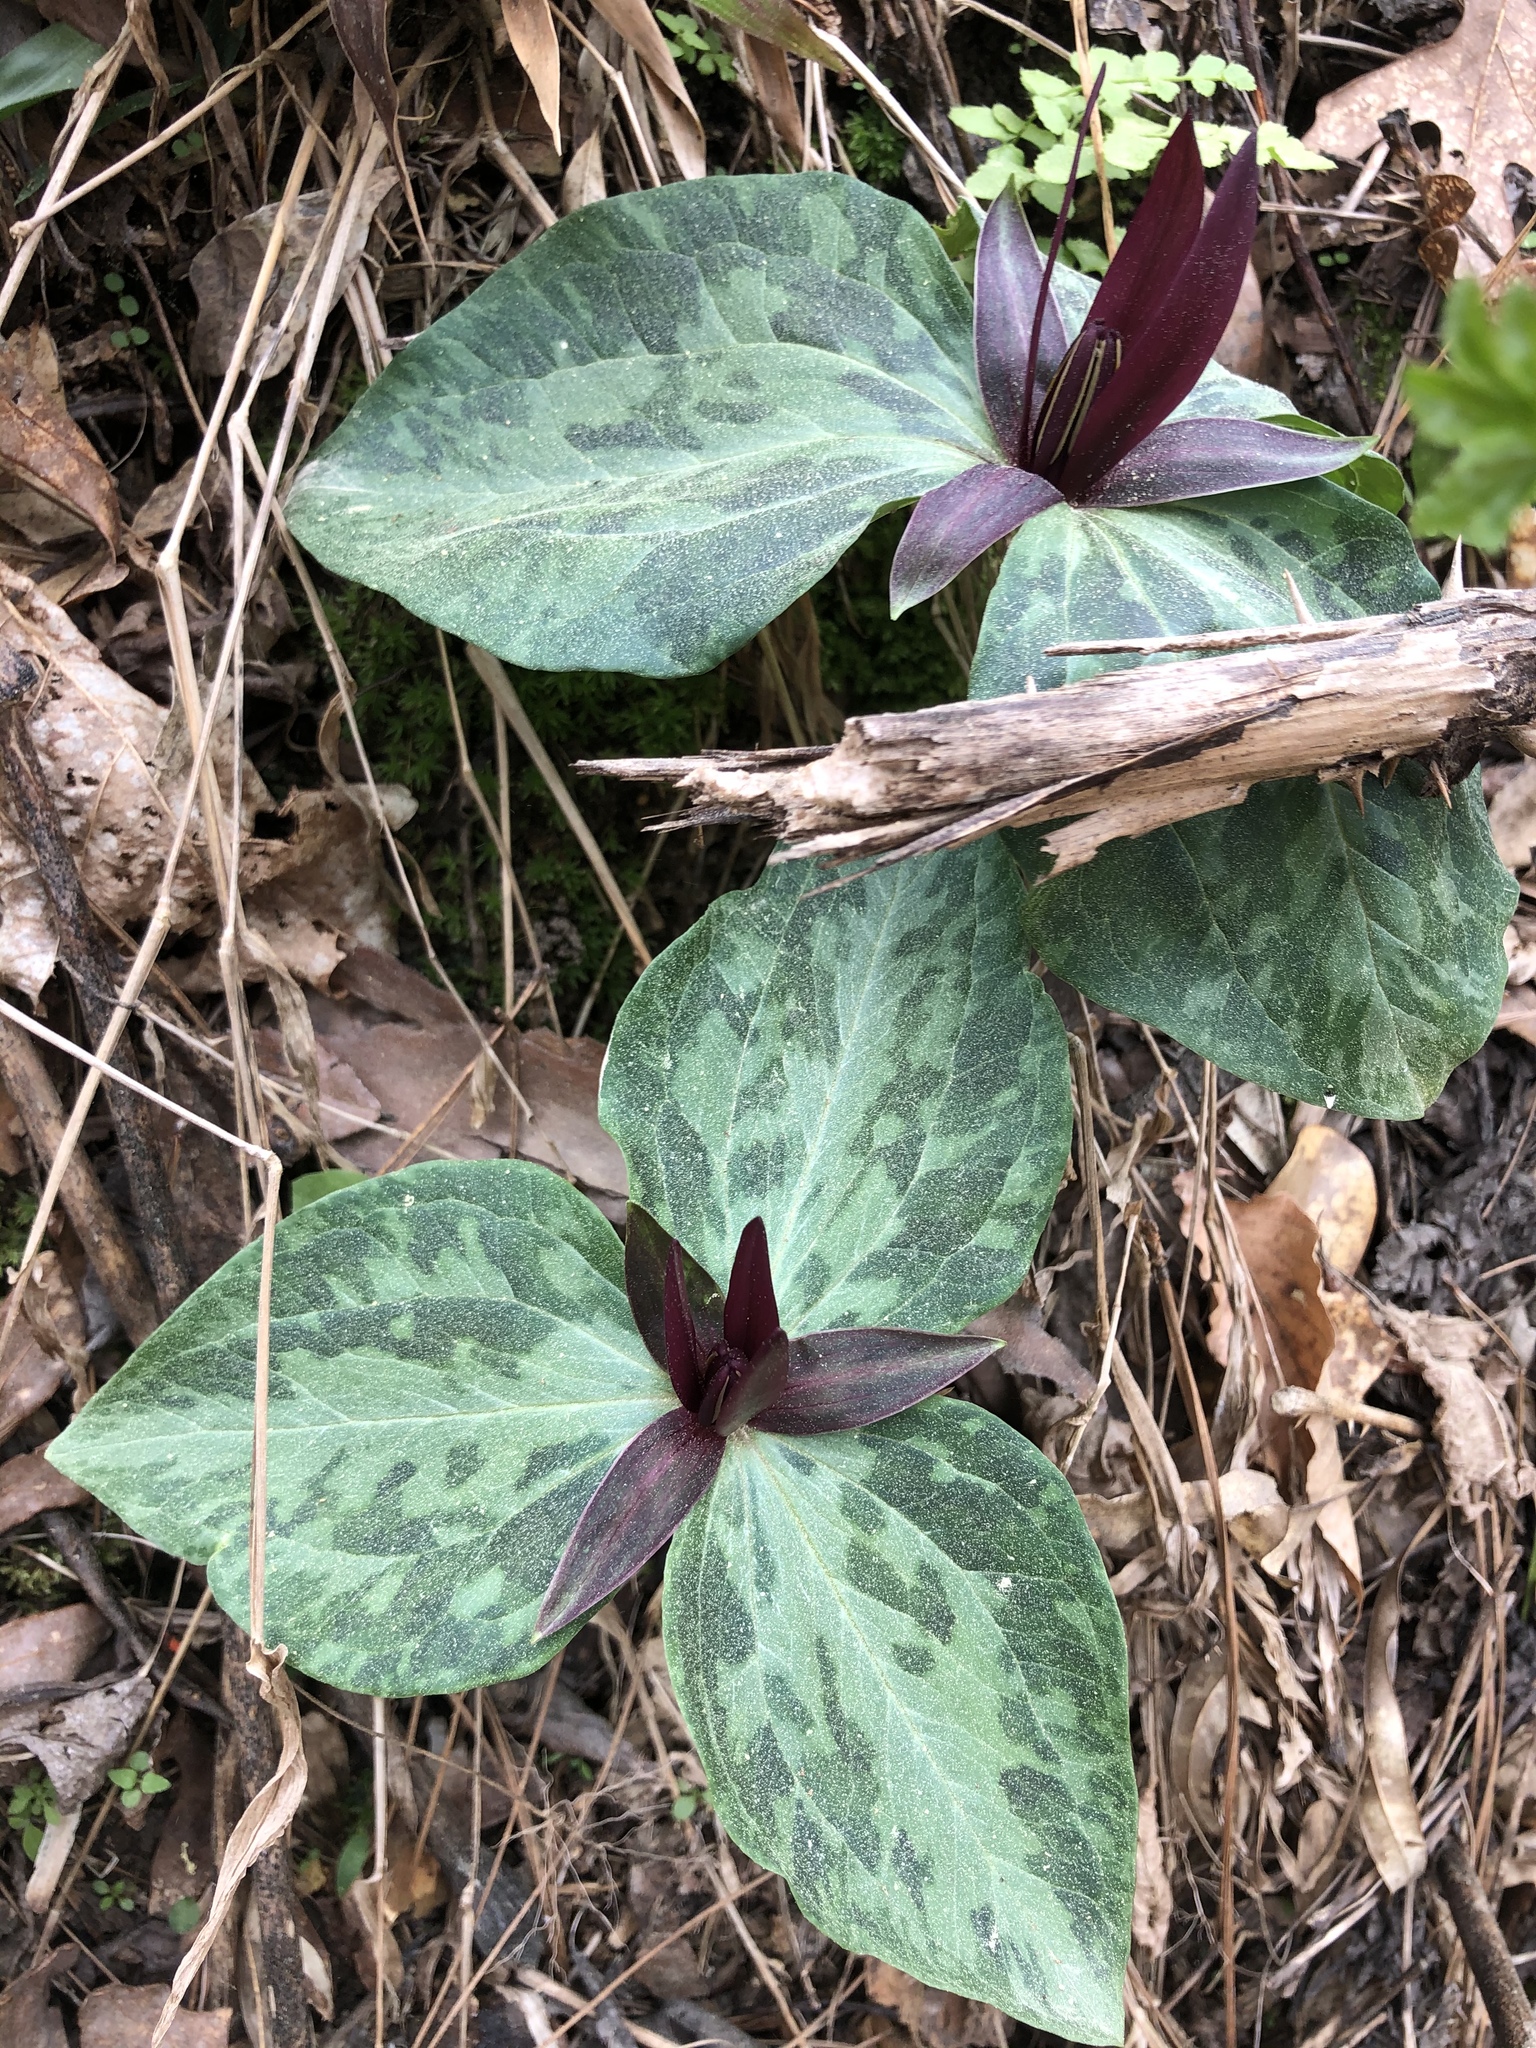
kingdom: Plantae
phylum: Tracheophyta
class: Liliopsida
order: Liliales
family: Melanthiaceae
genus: Trillium
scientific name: Trillium foetidissimum
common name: Mississippi river trillium
